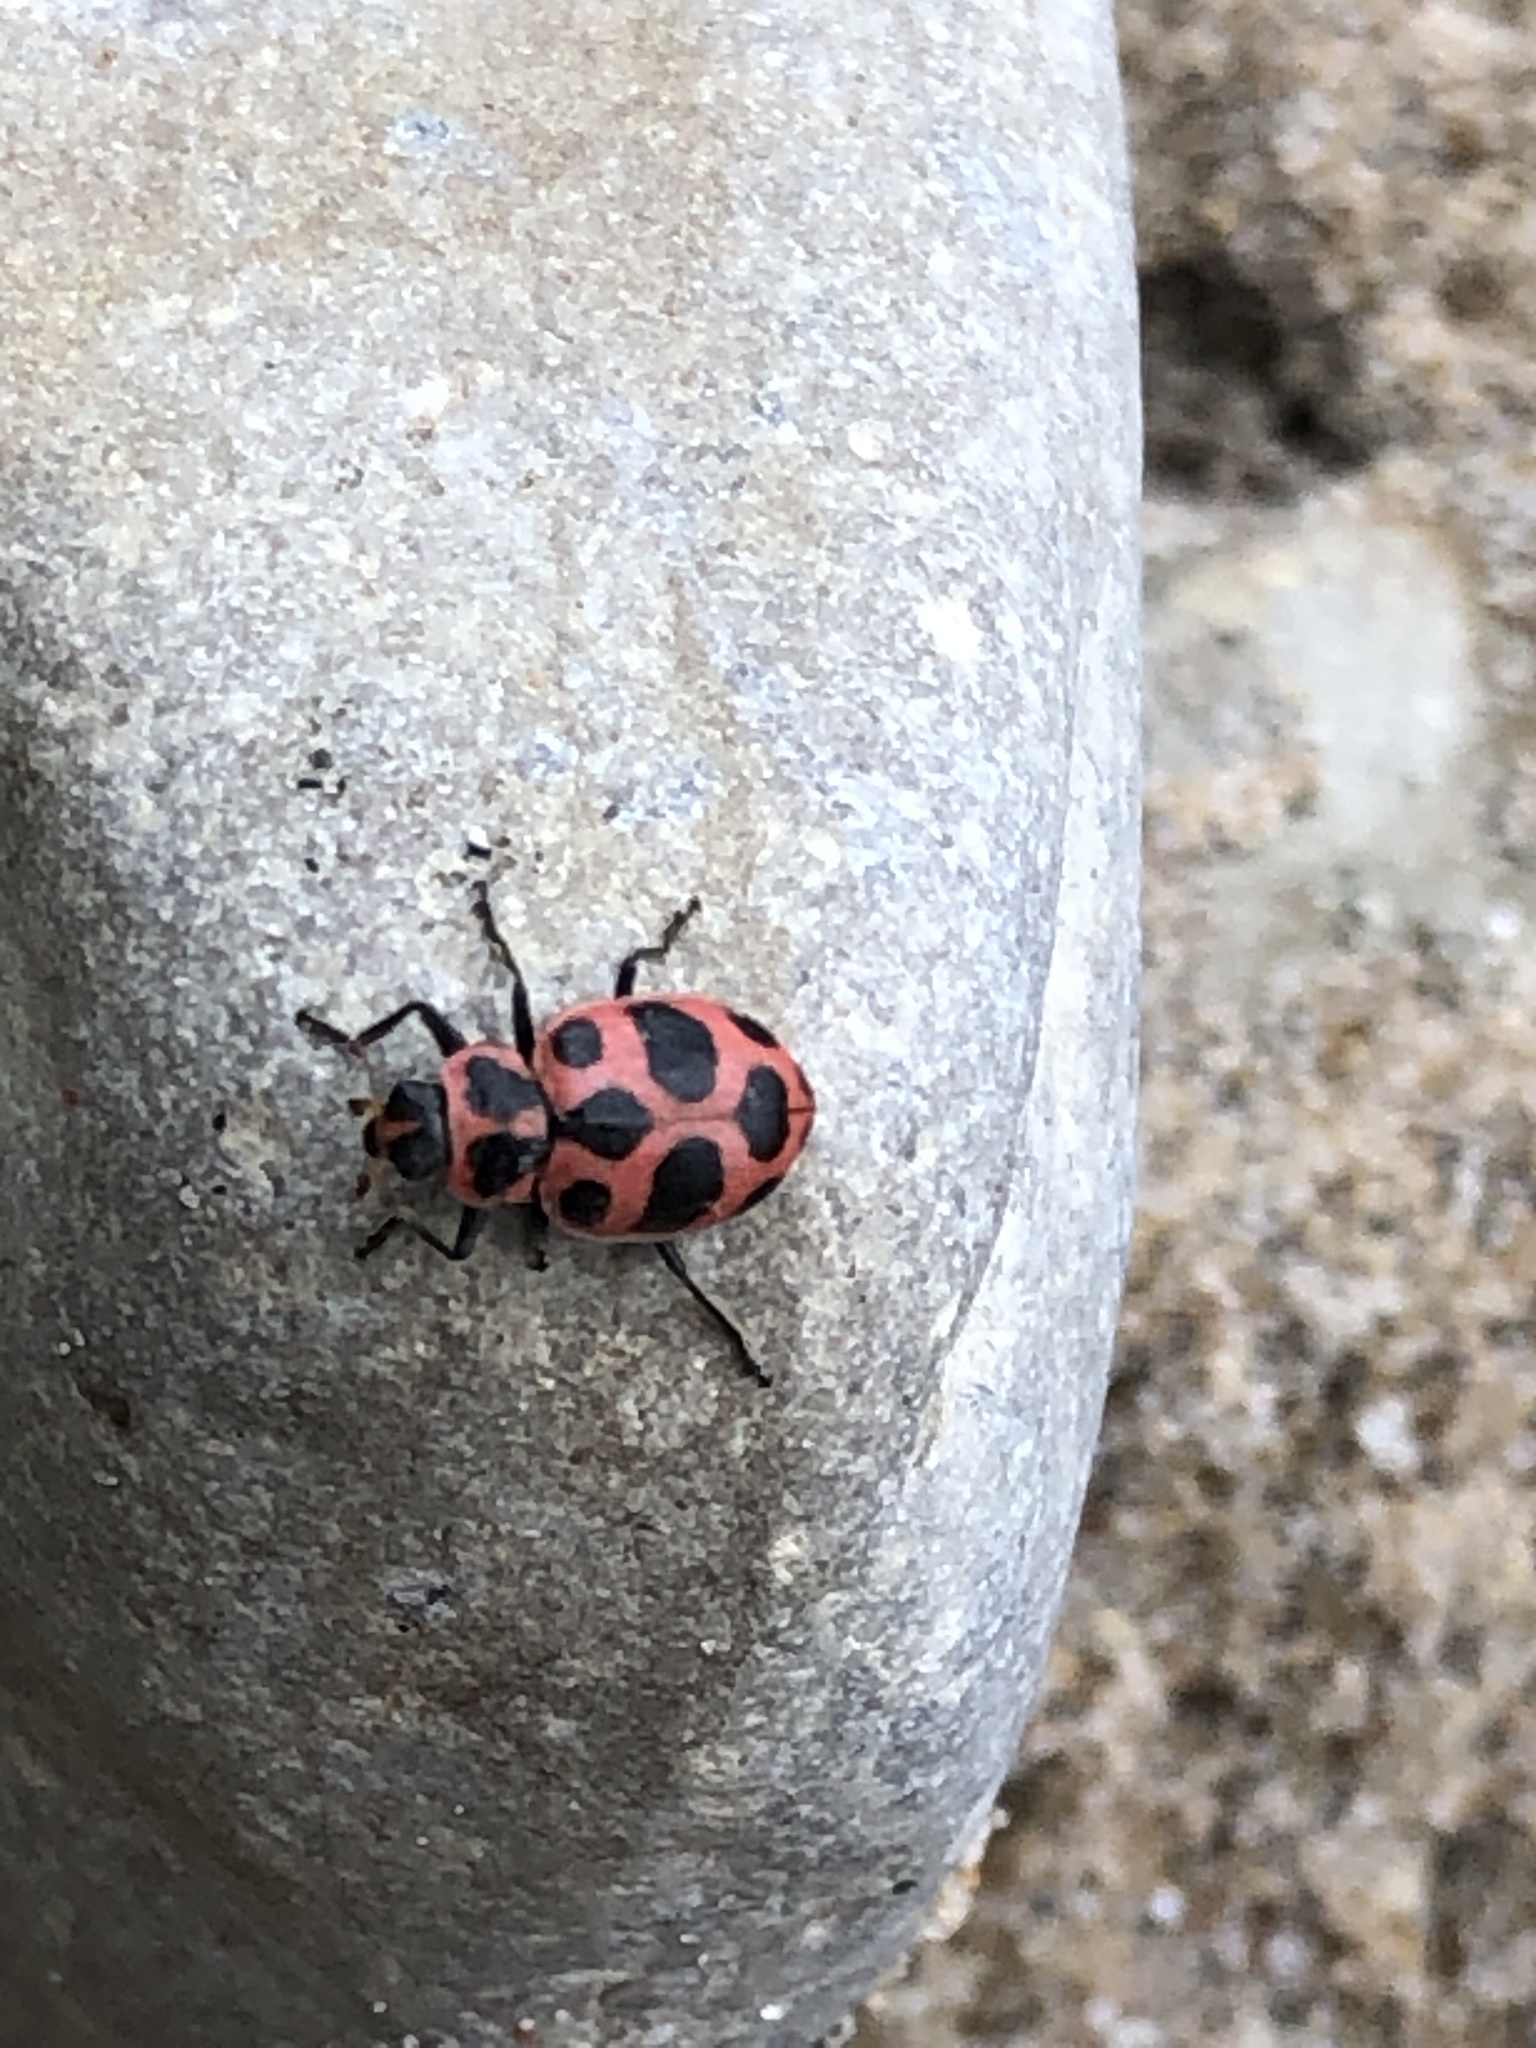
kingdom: Animalia
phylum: Arthropoda
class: Insecta
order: Coleoptera
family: Coccinellidae
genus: Coleomegilla
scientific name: Coleomegilla maculata
